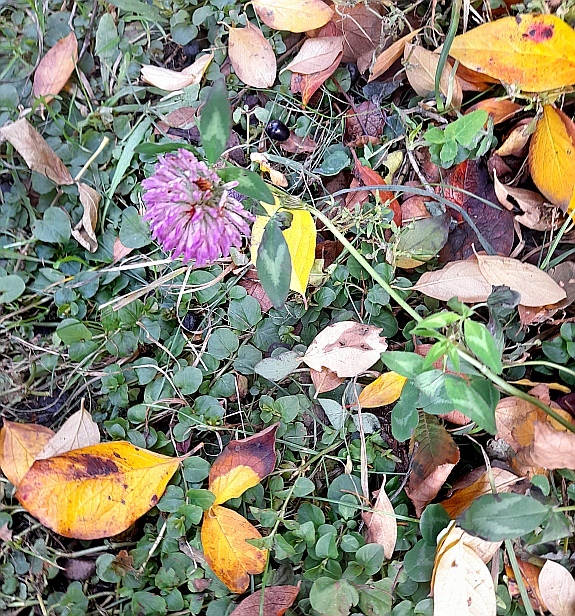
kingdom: Plantae
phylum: Tracheophyta
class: Magnoliopsida
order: Fabales
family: Fabaceae
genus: Trifolium
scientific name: Trifolium pratense
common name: Red clover
